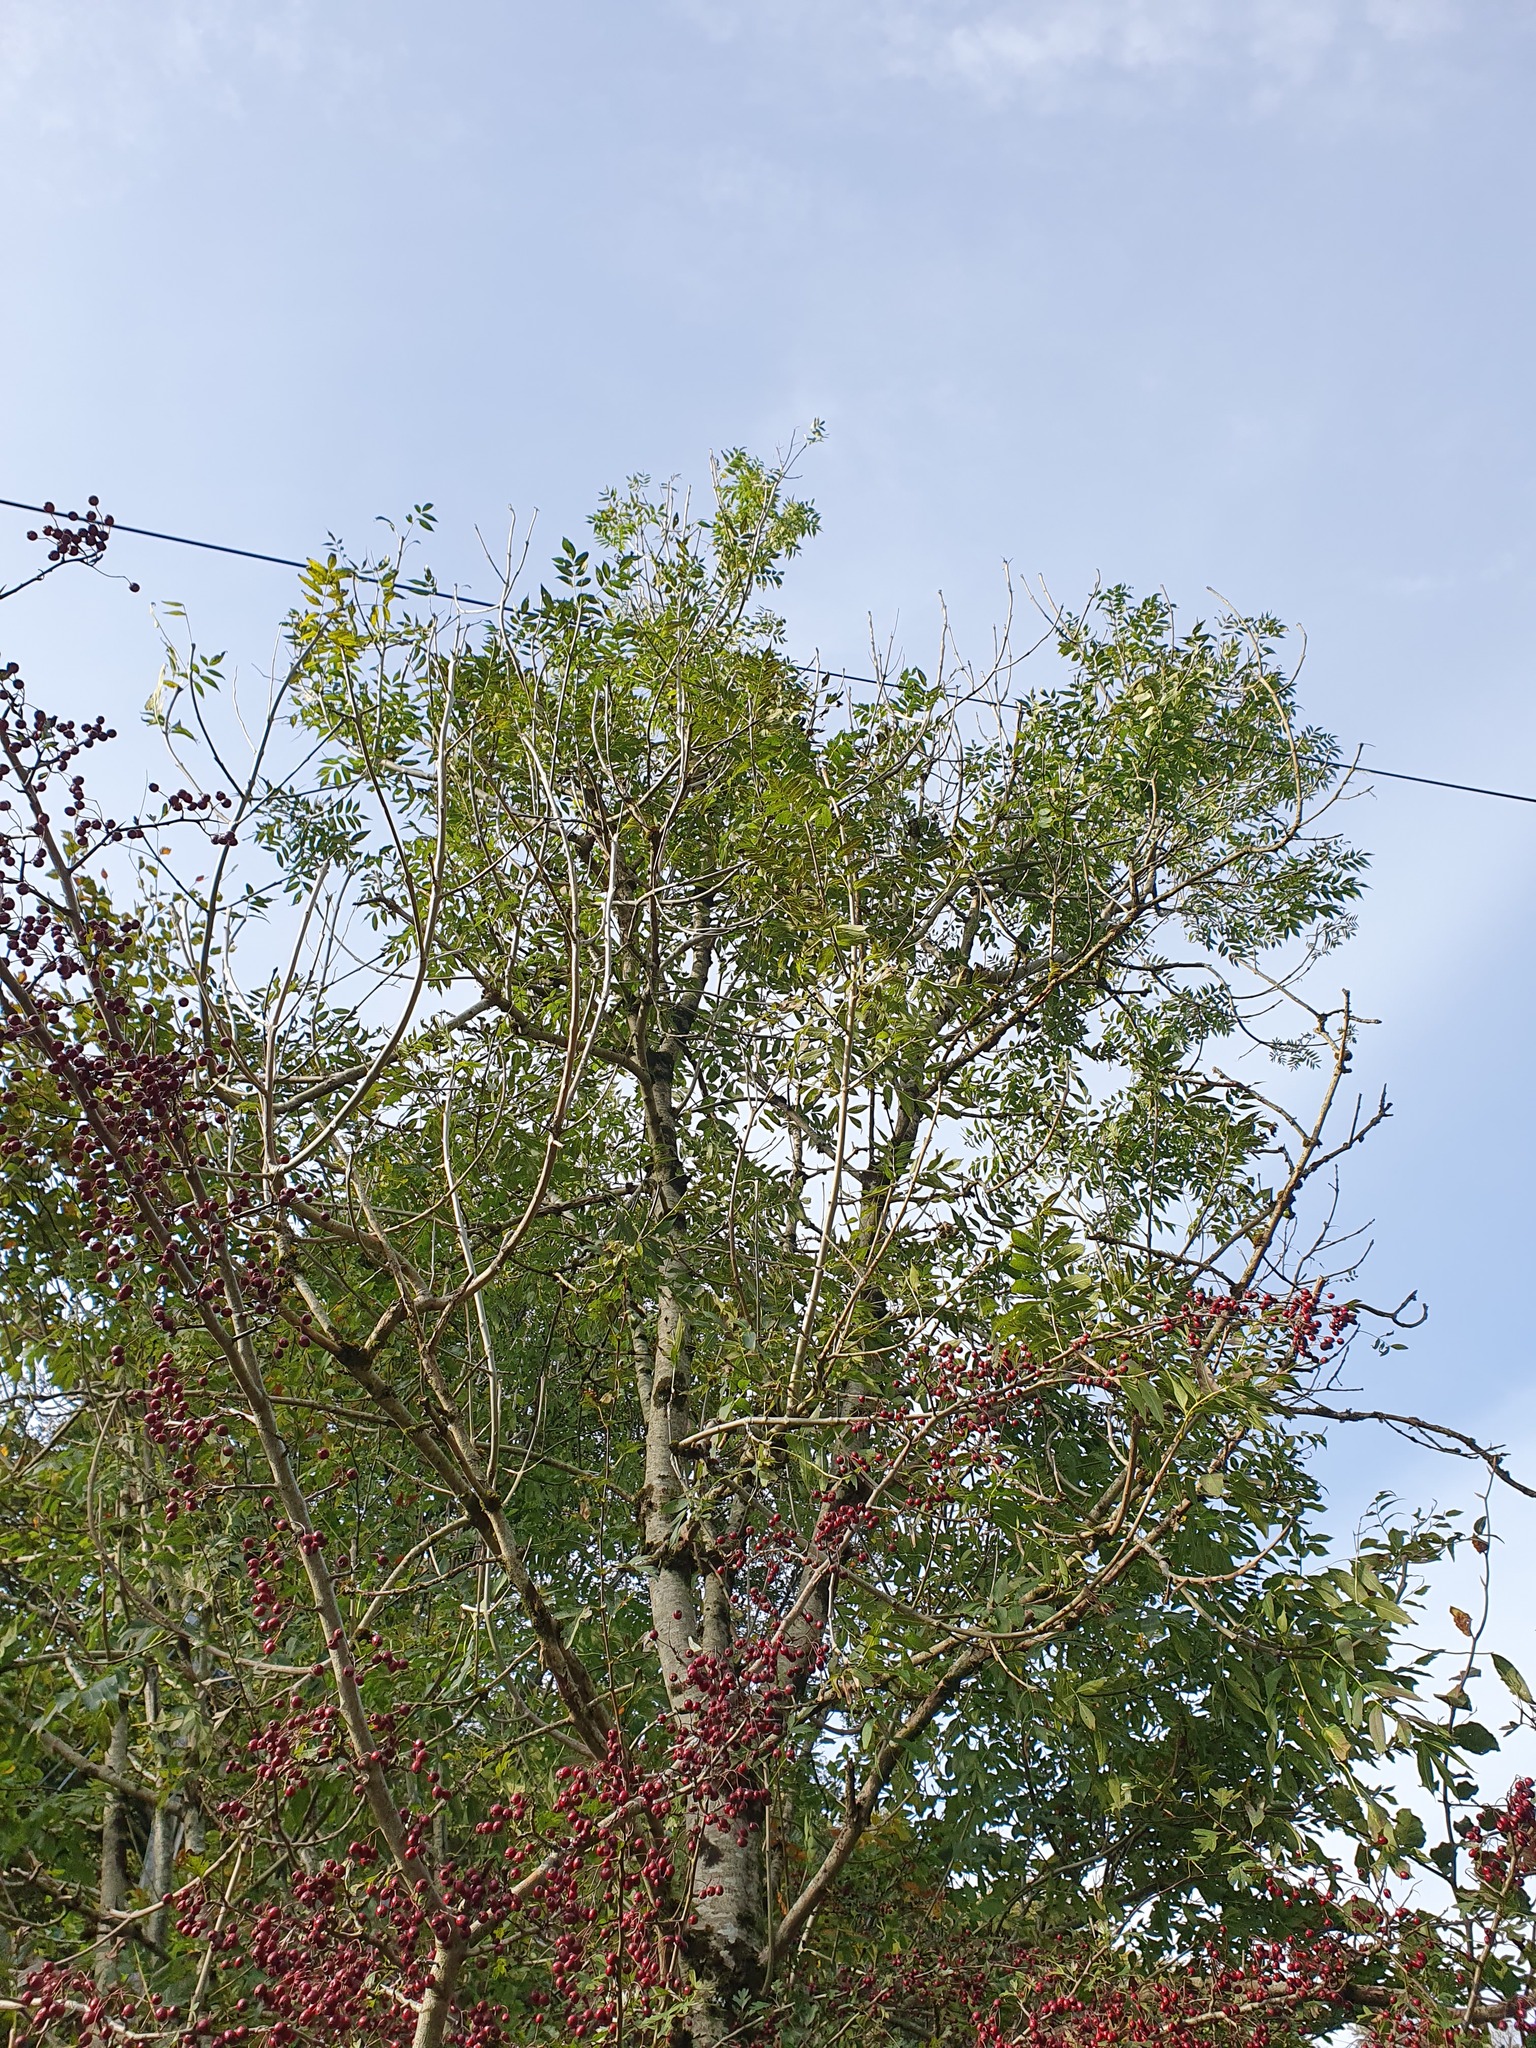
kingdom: Plantae
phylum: Tracheophyta
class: Magnoliopsida
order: Lamiales
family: Oleaceae
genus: Fraxinus
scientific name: Fraxinus excelsior
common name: European ash
